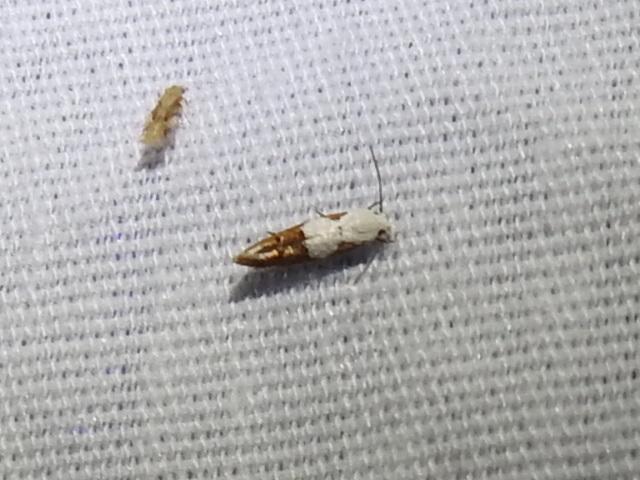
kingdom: Animalia
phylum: Arthropoda
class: Insecta
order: Lepidoptera
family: Momphidae
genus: Mompha
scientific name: Mompha circumscriptella
